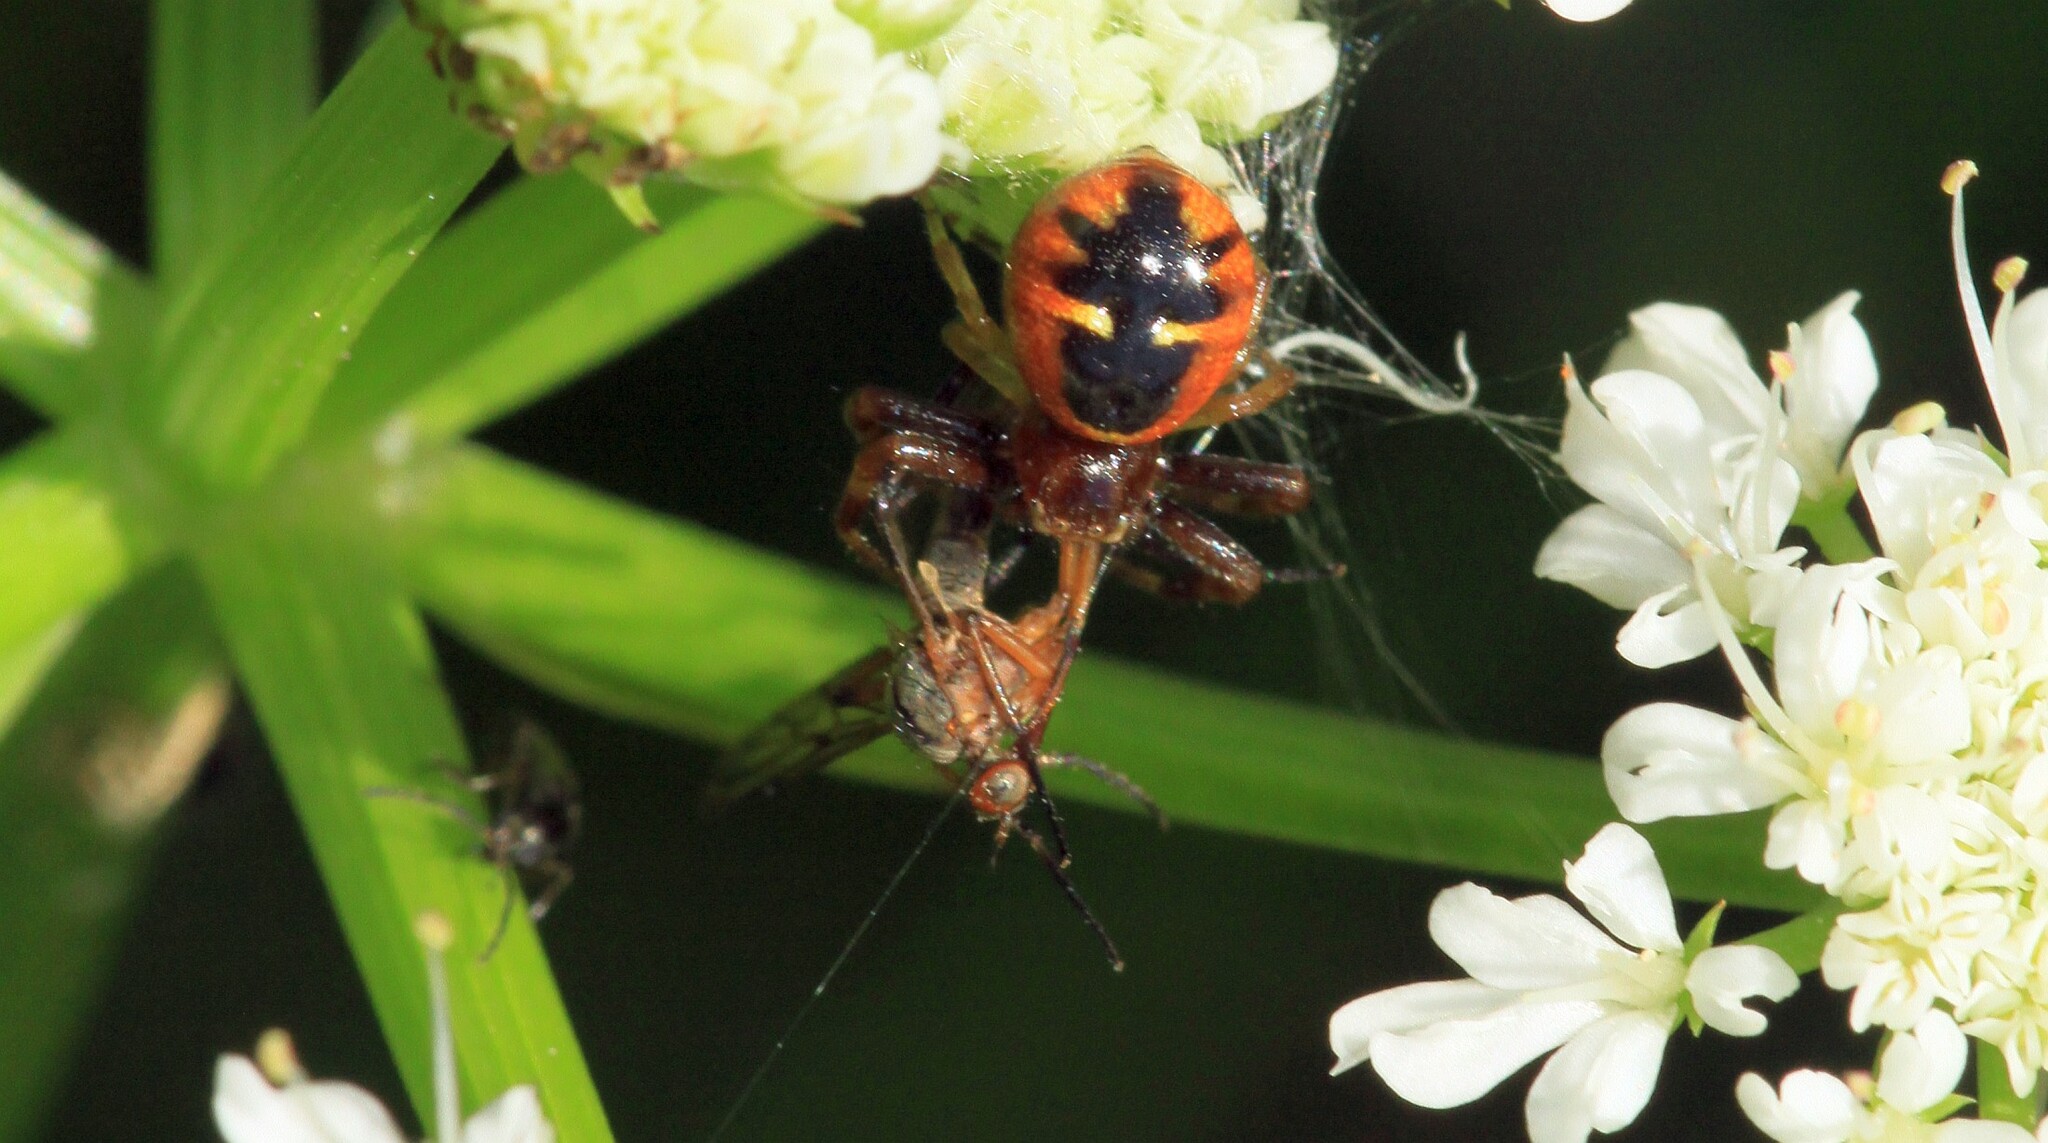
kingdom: Animalia
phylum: Arthropoda
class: Arachnida
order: Araneae
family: Thomisidae
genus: Synema
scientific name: Synema globosum
